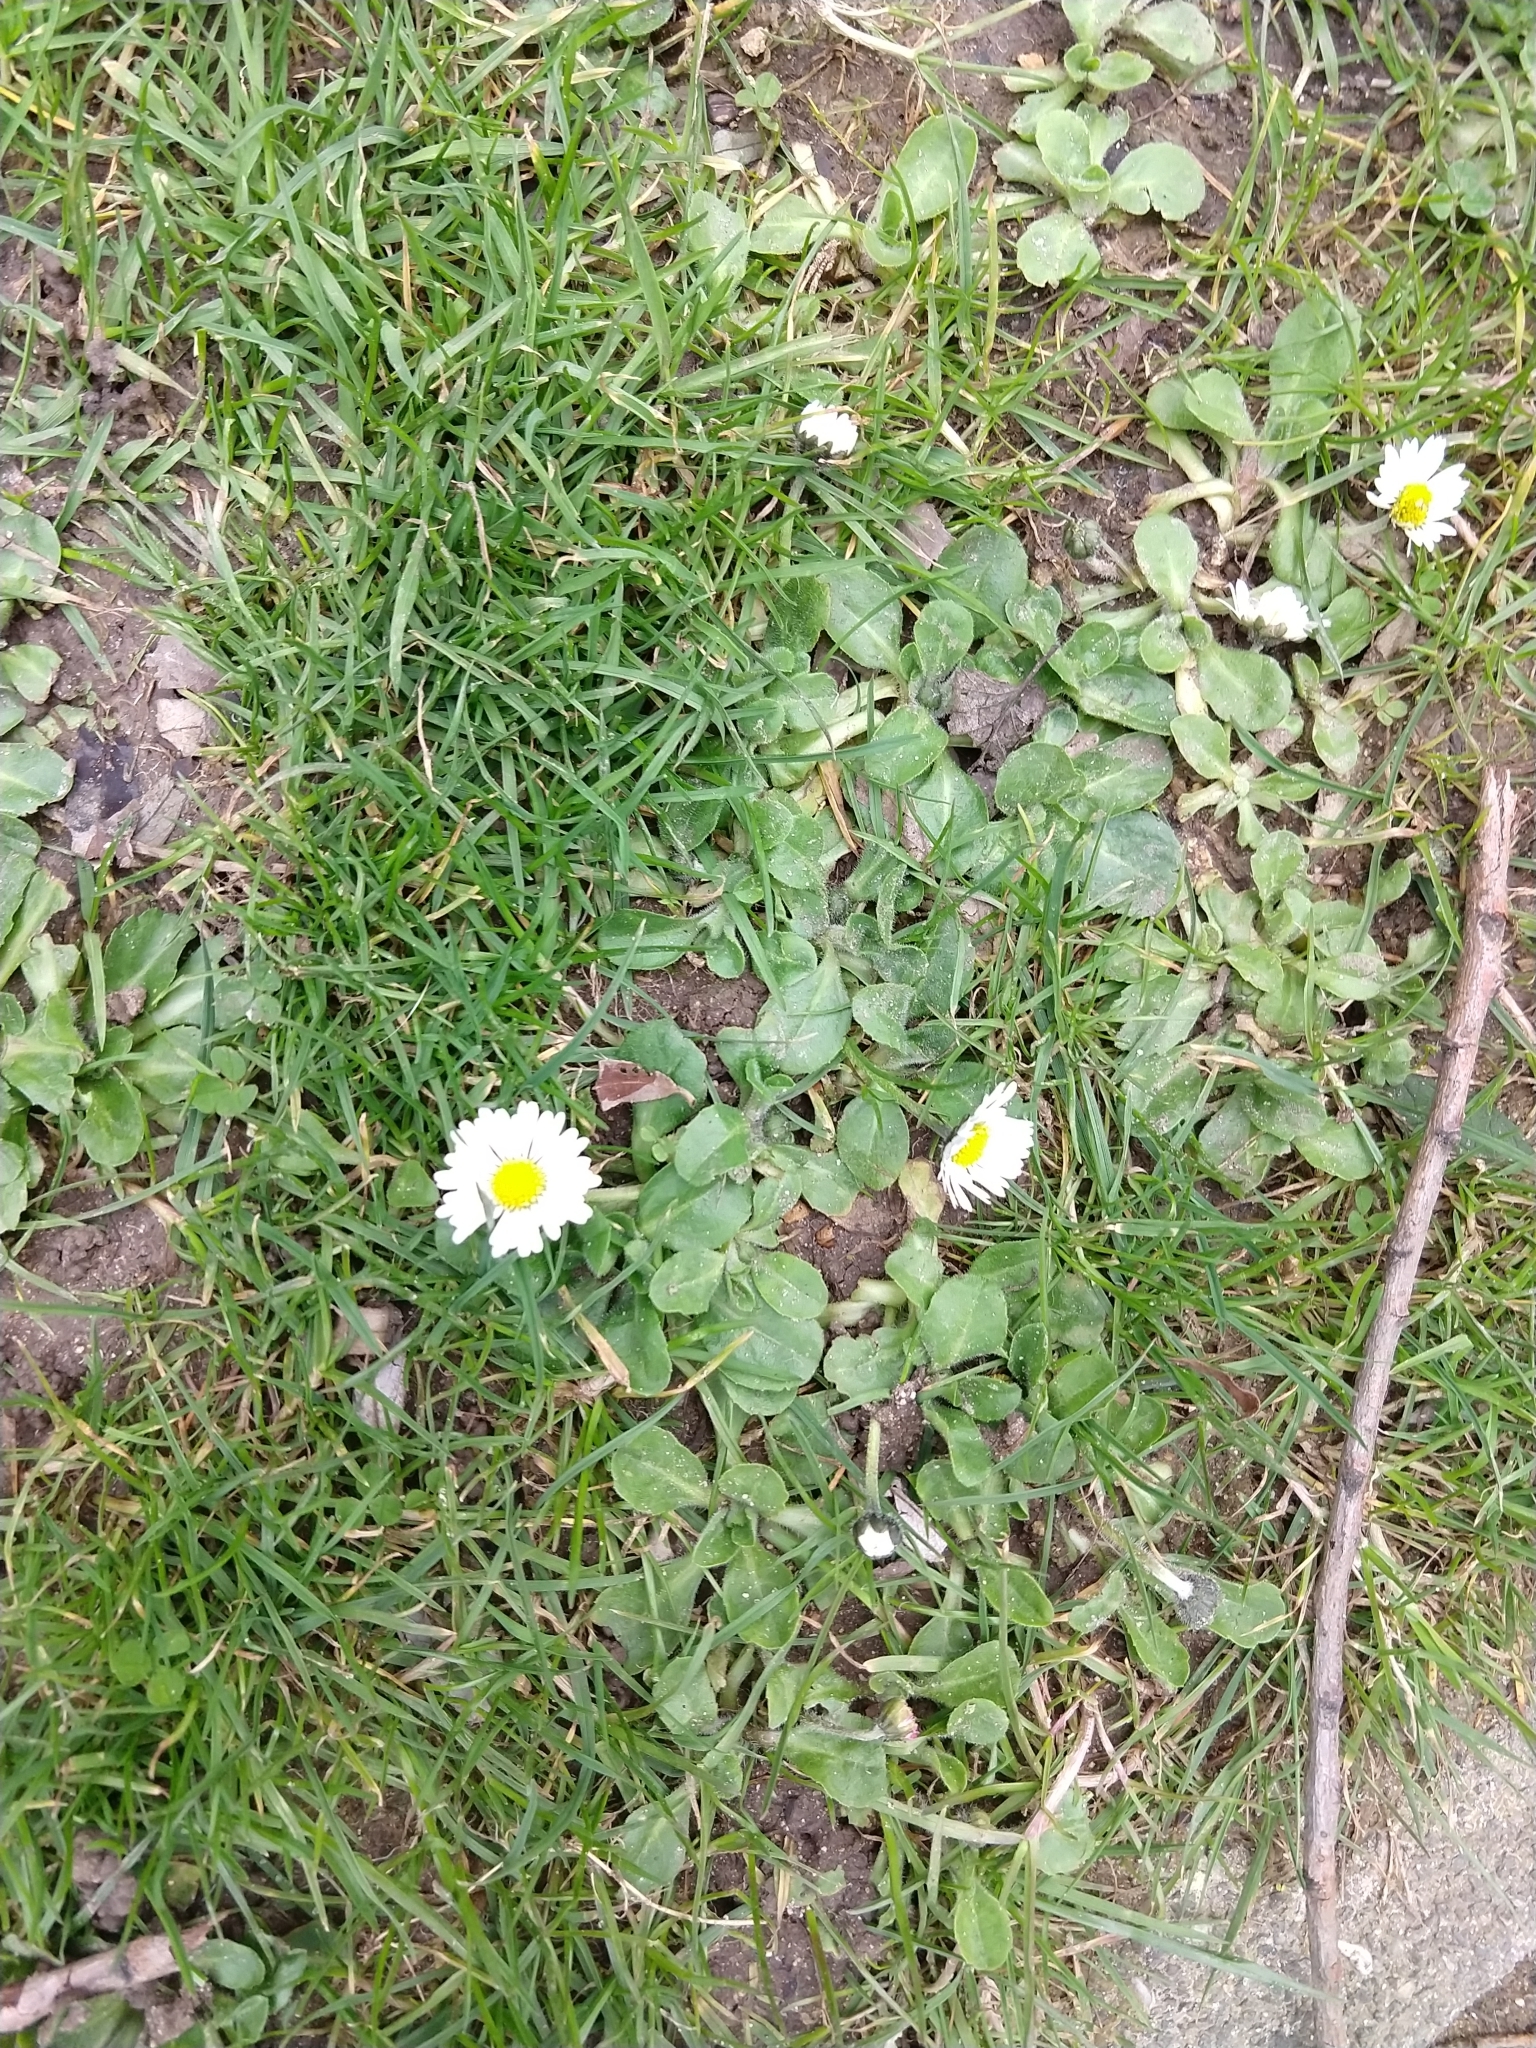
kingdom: Plantae
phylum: Tracheophyta
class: Magnoliopsida
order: Asterales
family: Asteraceae
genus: Bellis
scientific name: Bellis perennis
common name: Lawndaisy
